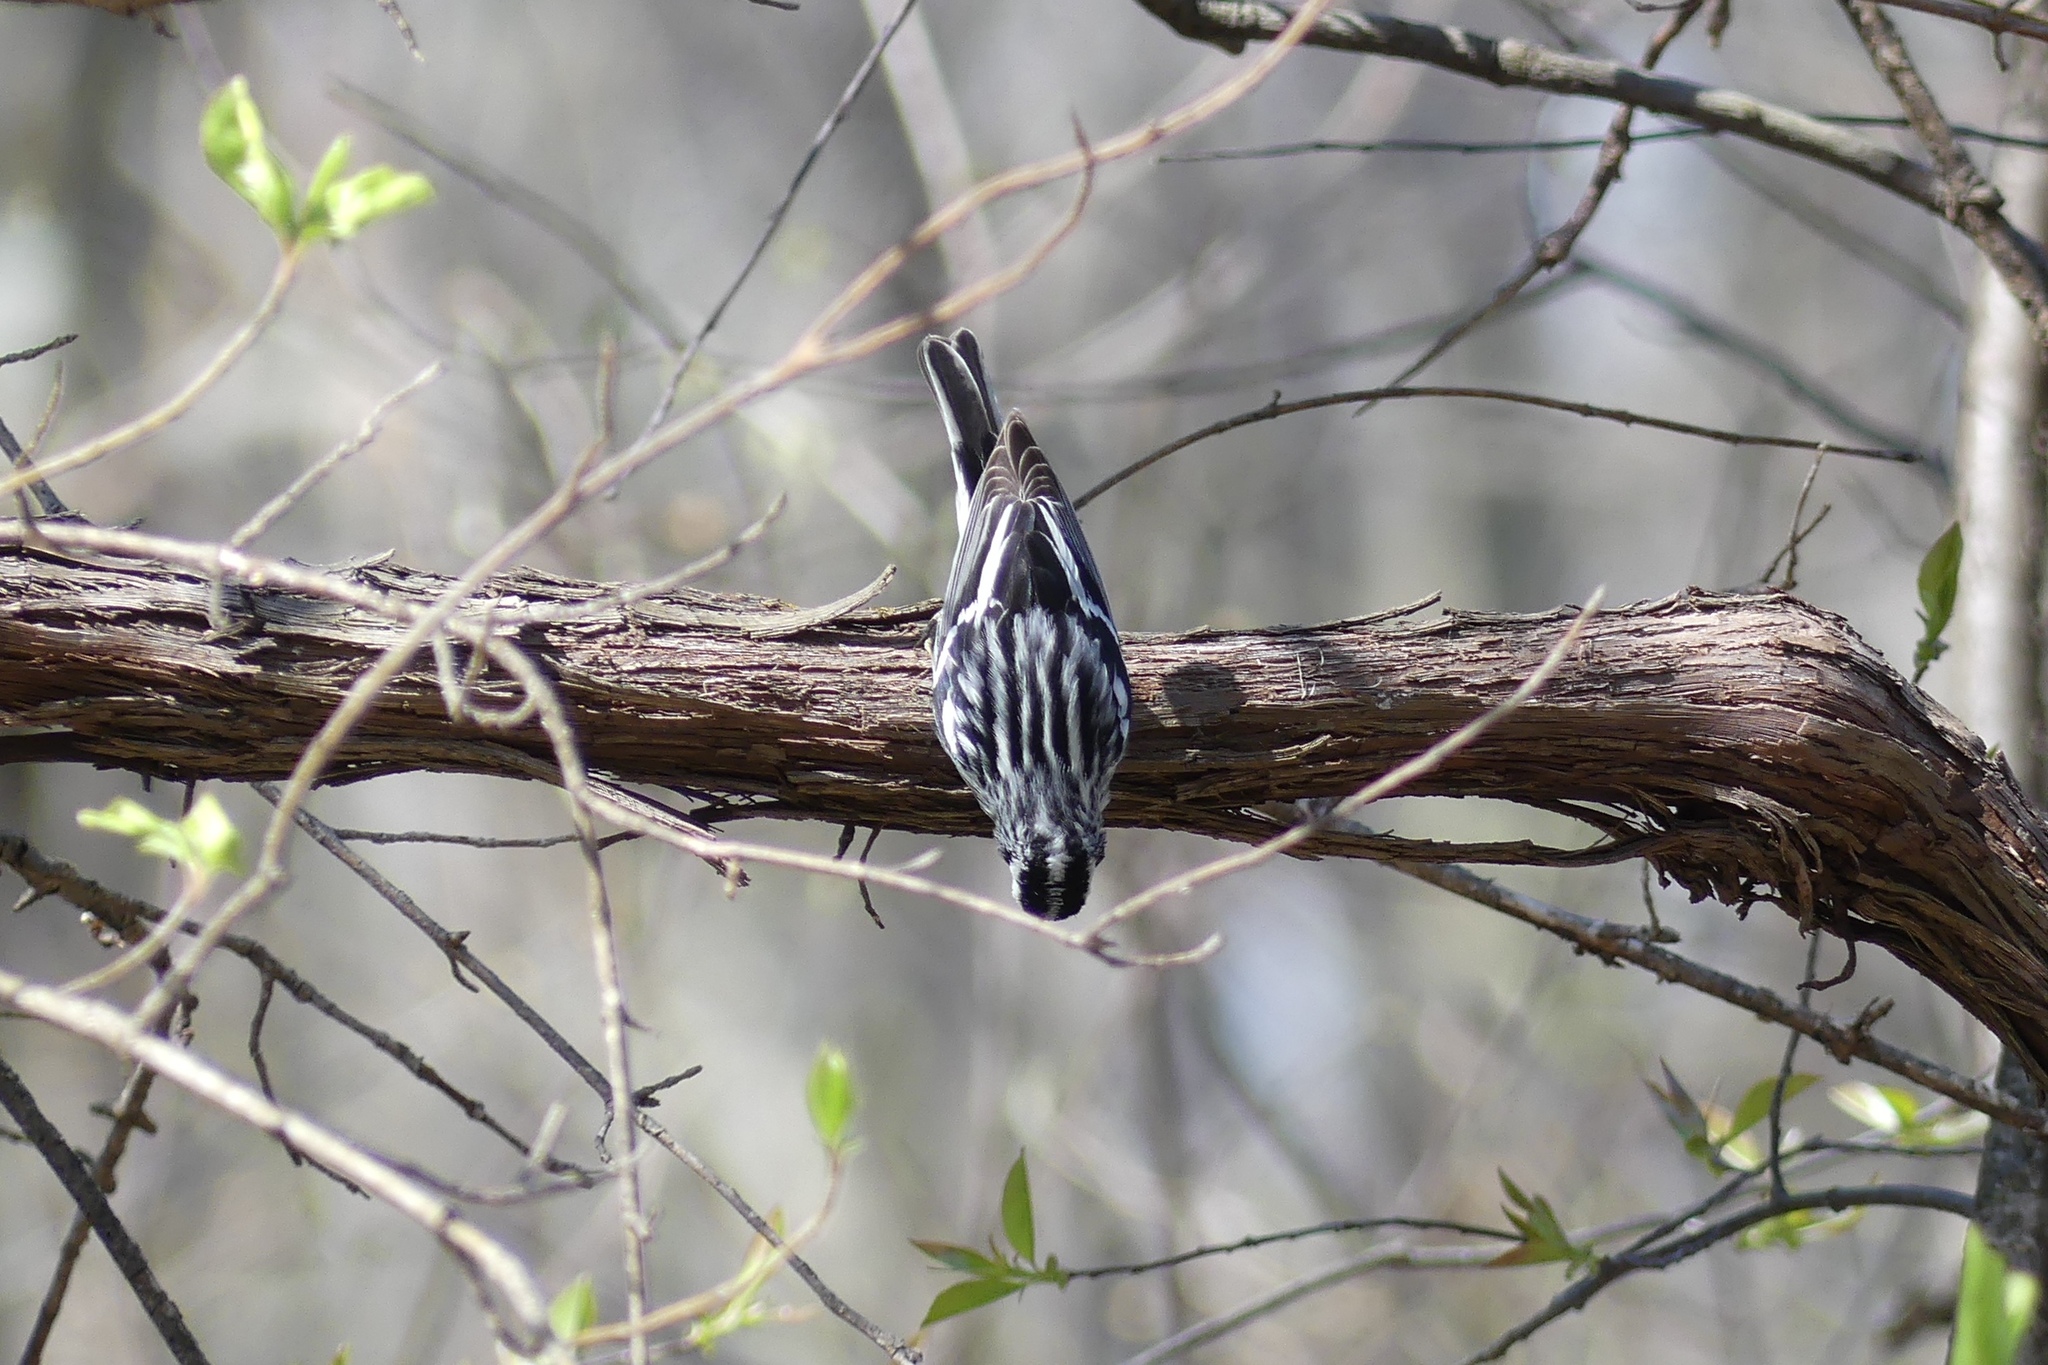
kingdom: Animalia
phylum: Chordata
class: Aves
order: Passeriformes
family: Parulidae
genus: Mniotilta
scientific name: Mniotilta varia
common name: Black-and-white warbler
